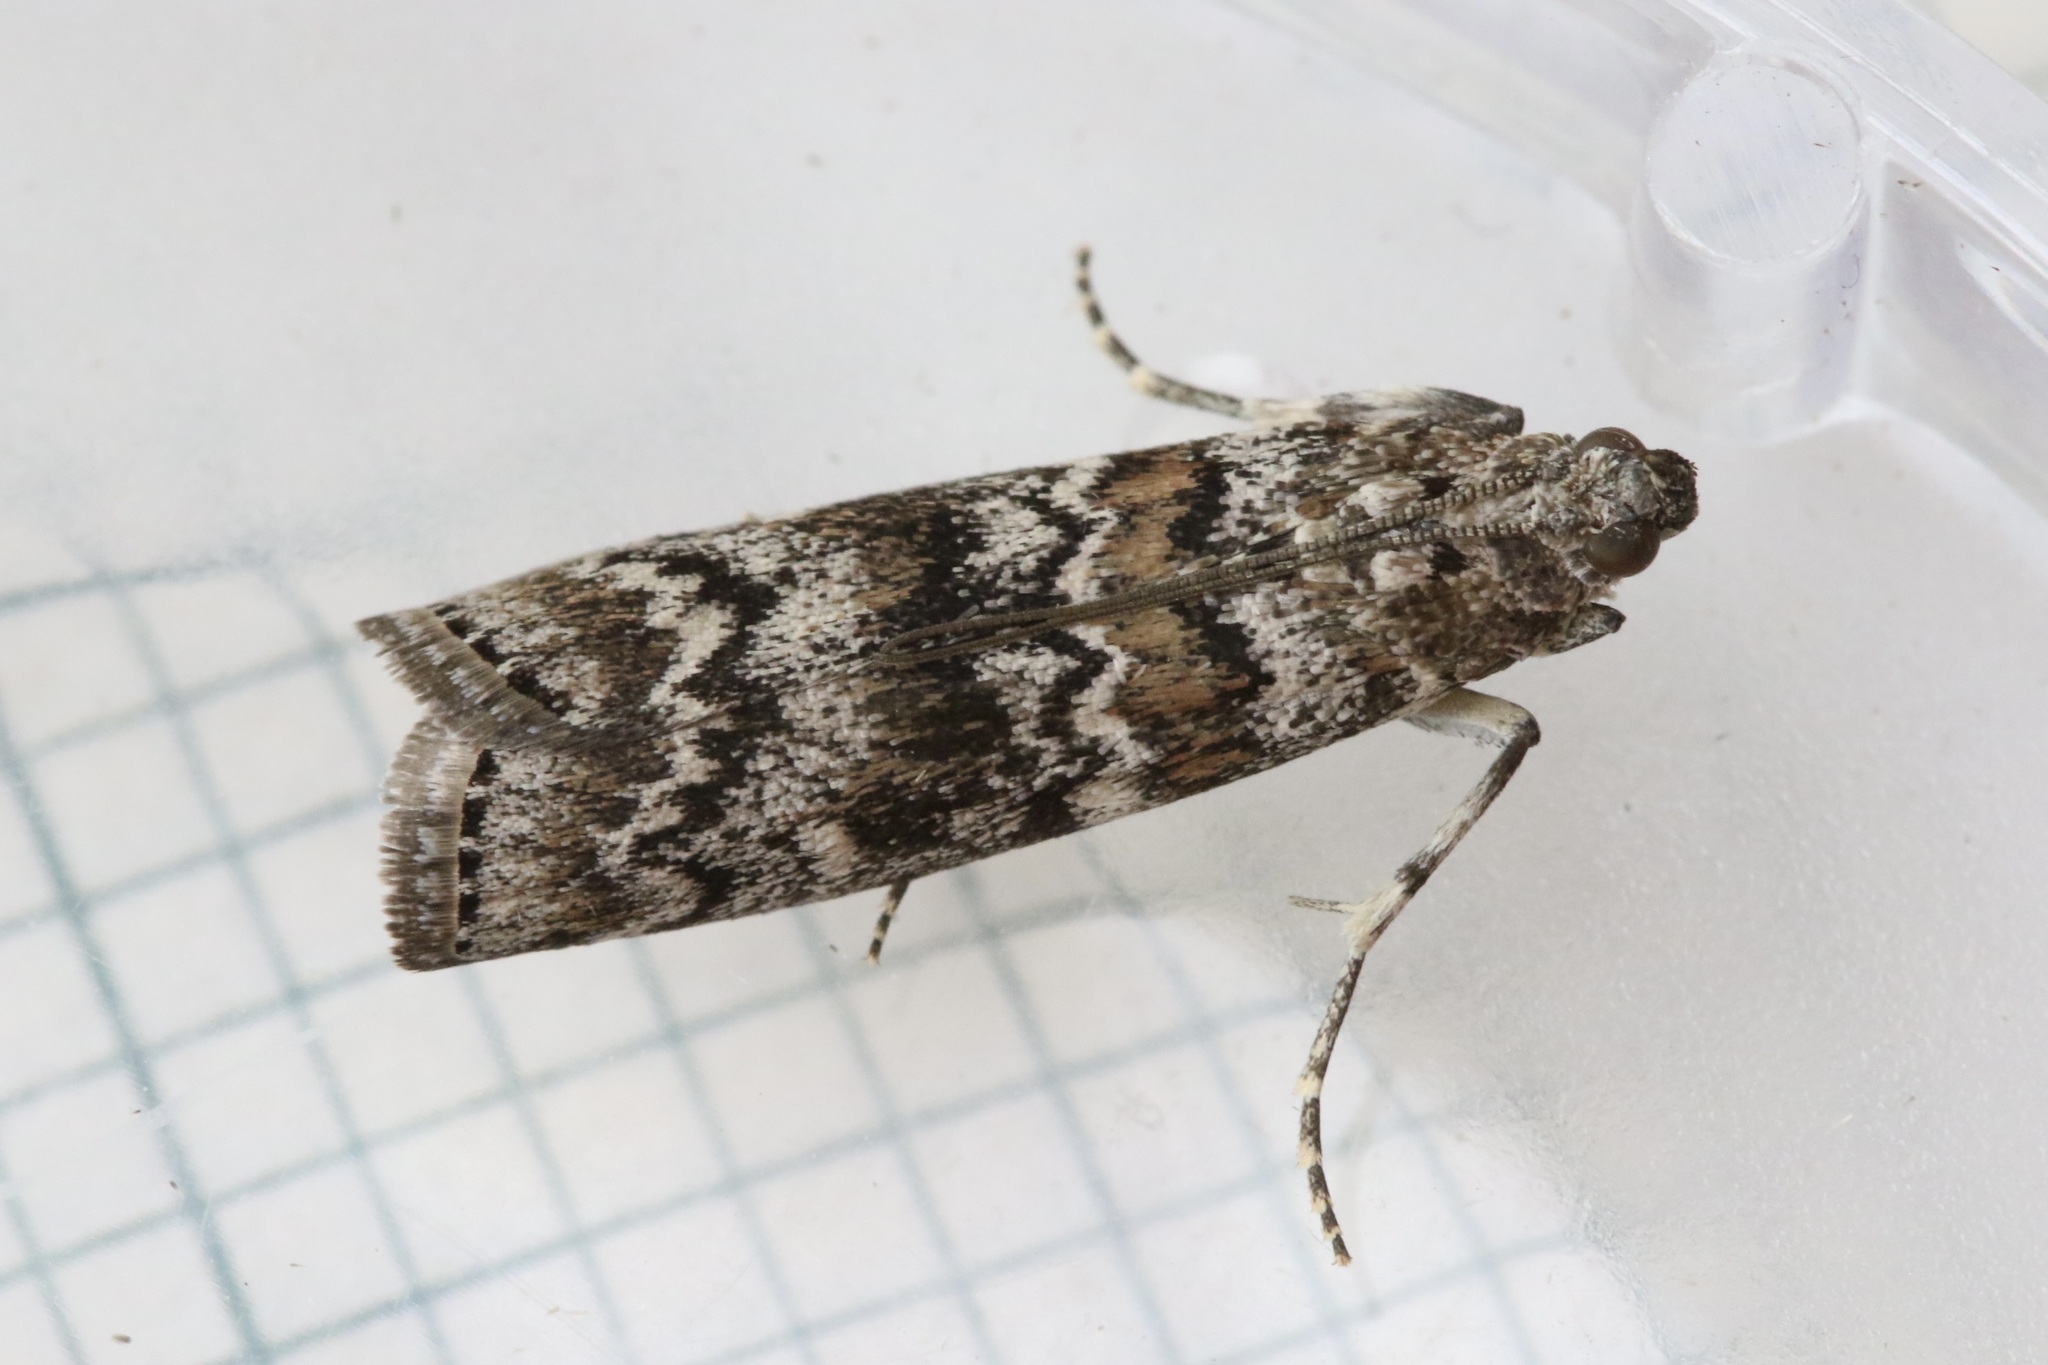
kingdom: Animalia
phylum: Arthropoda
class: Insecta
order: Lepidoptera
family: Pyralidae
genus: Dioryctria
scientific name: Dioryctria abietella
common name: Dark pine knot-horn
